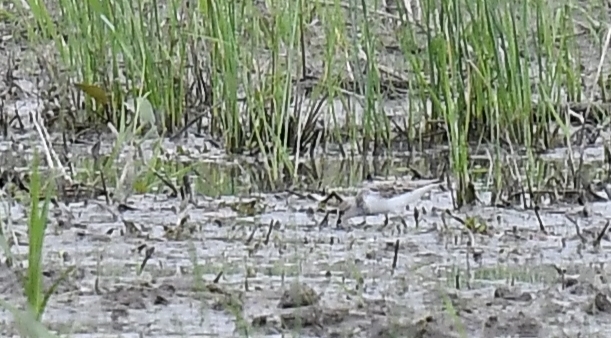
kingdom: Animalia
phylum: Chordata
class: Aves
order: Charadriiformes
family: Scolopacidae
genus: Calidris
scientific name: Calidris pusilla
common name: Semipalmated sandpiper
